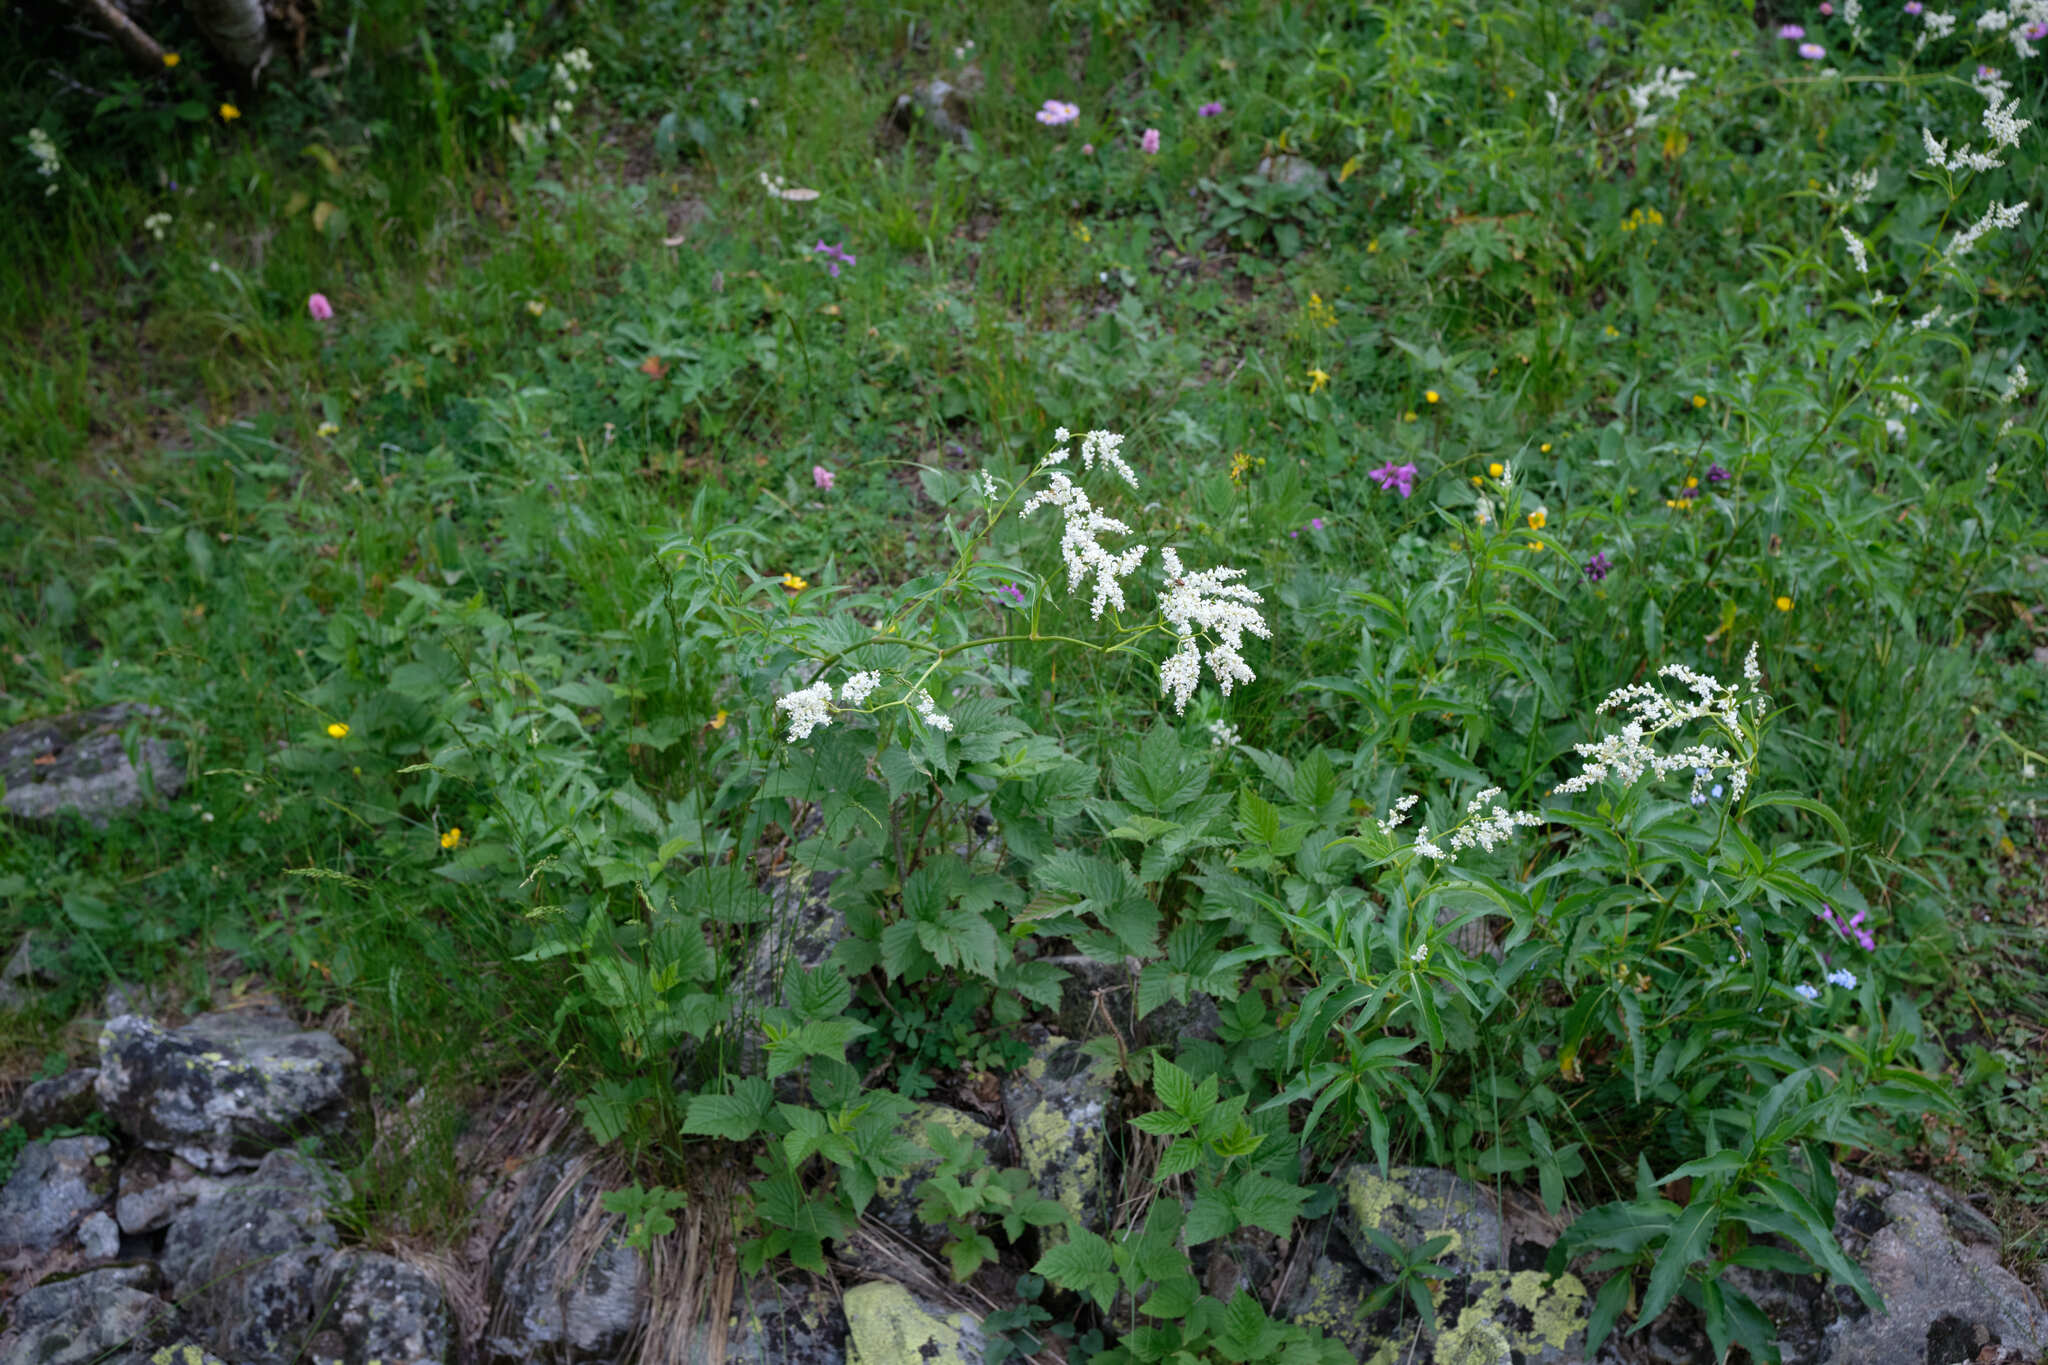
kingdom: Plantae
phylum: Tracheophyta
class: Magnoliopsida
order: Caryophyllales
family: Polygonaceae
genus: Koenigia
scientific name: Koenigia alpina
